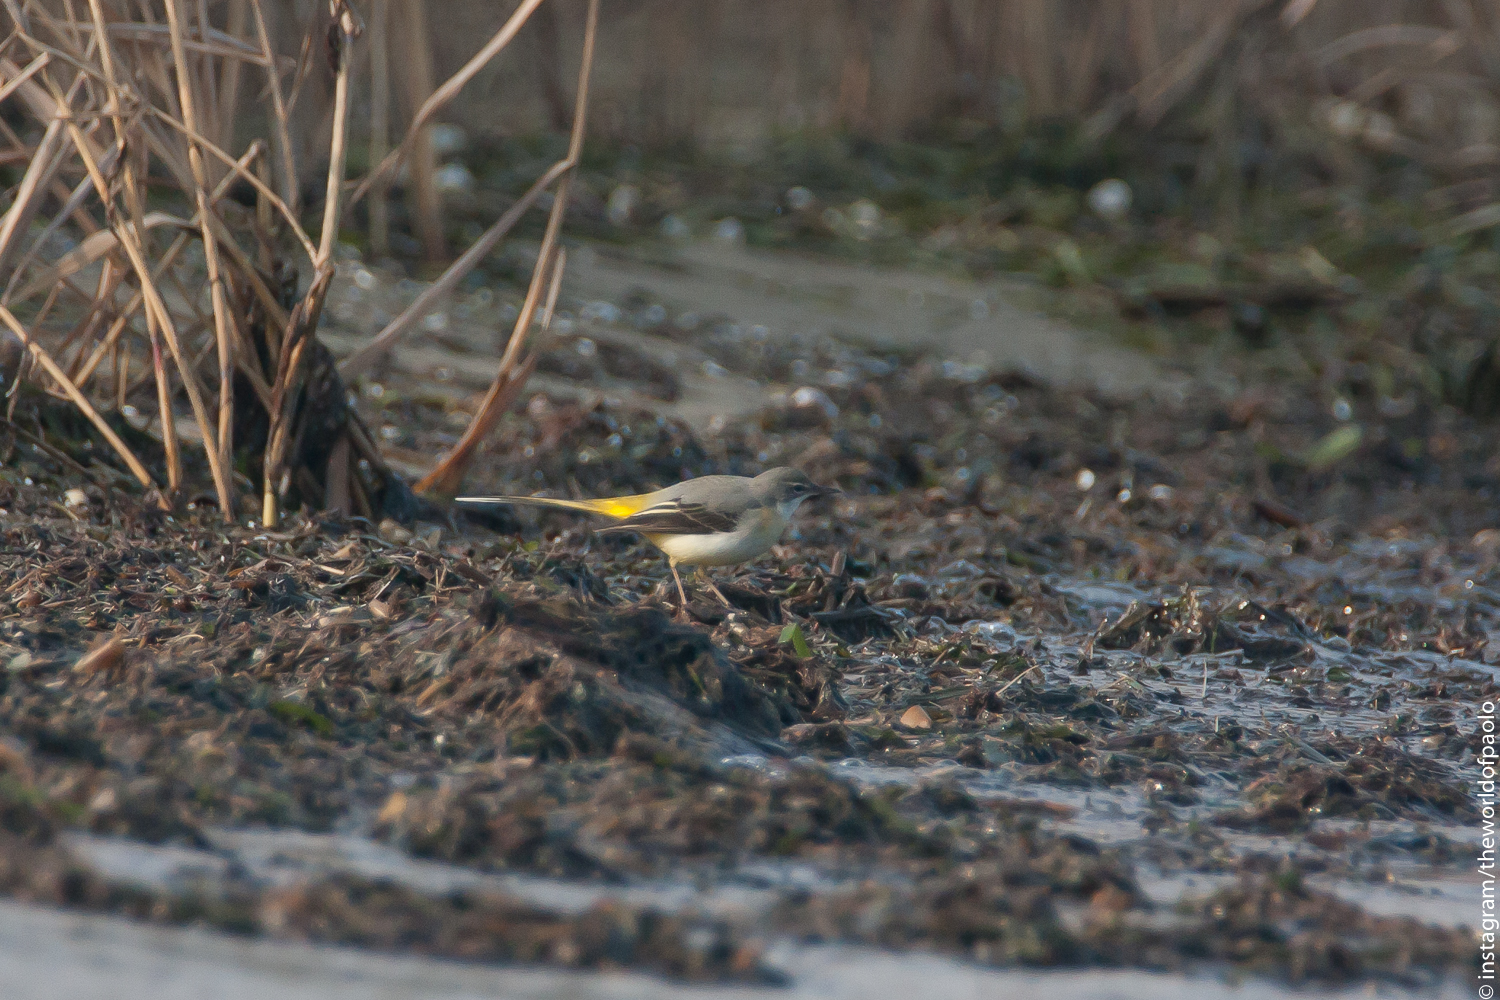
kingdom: Animalia
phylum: Chordata
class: Aves
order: Passeriformes
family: Motacillidae
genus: Motacilla
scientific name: Motacilla cinerea
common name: Grey wagtail
